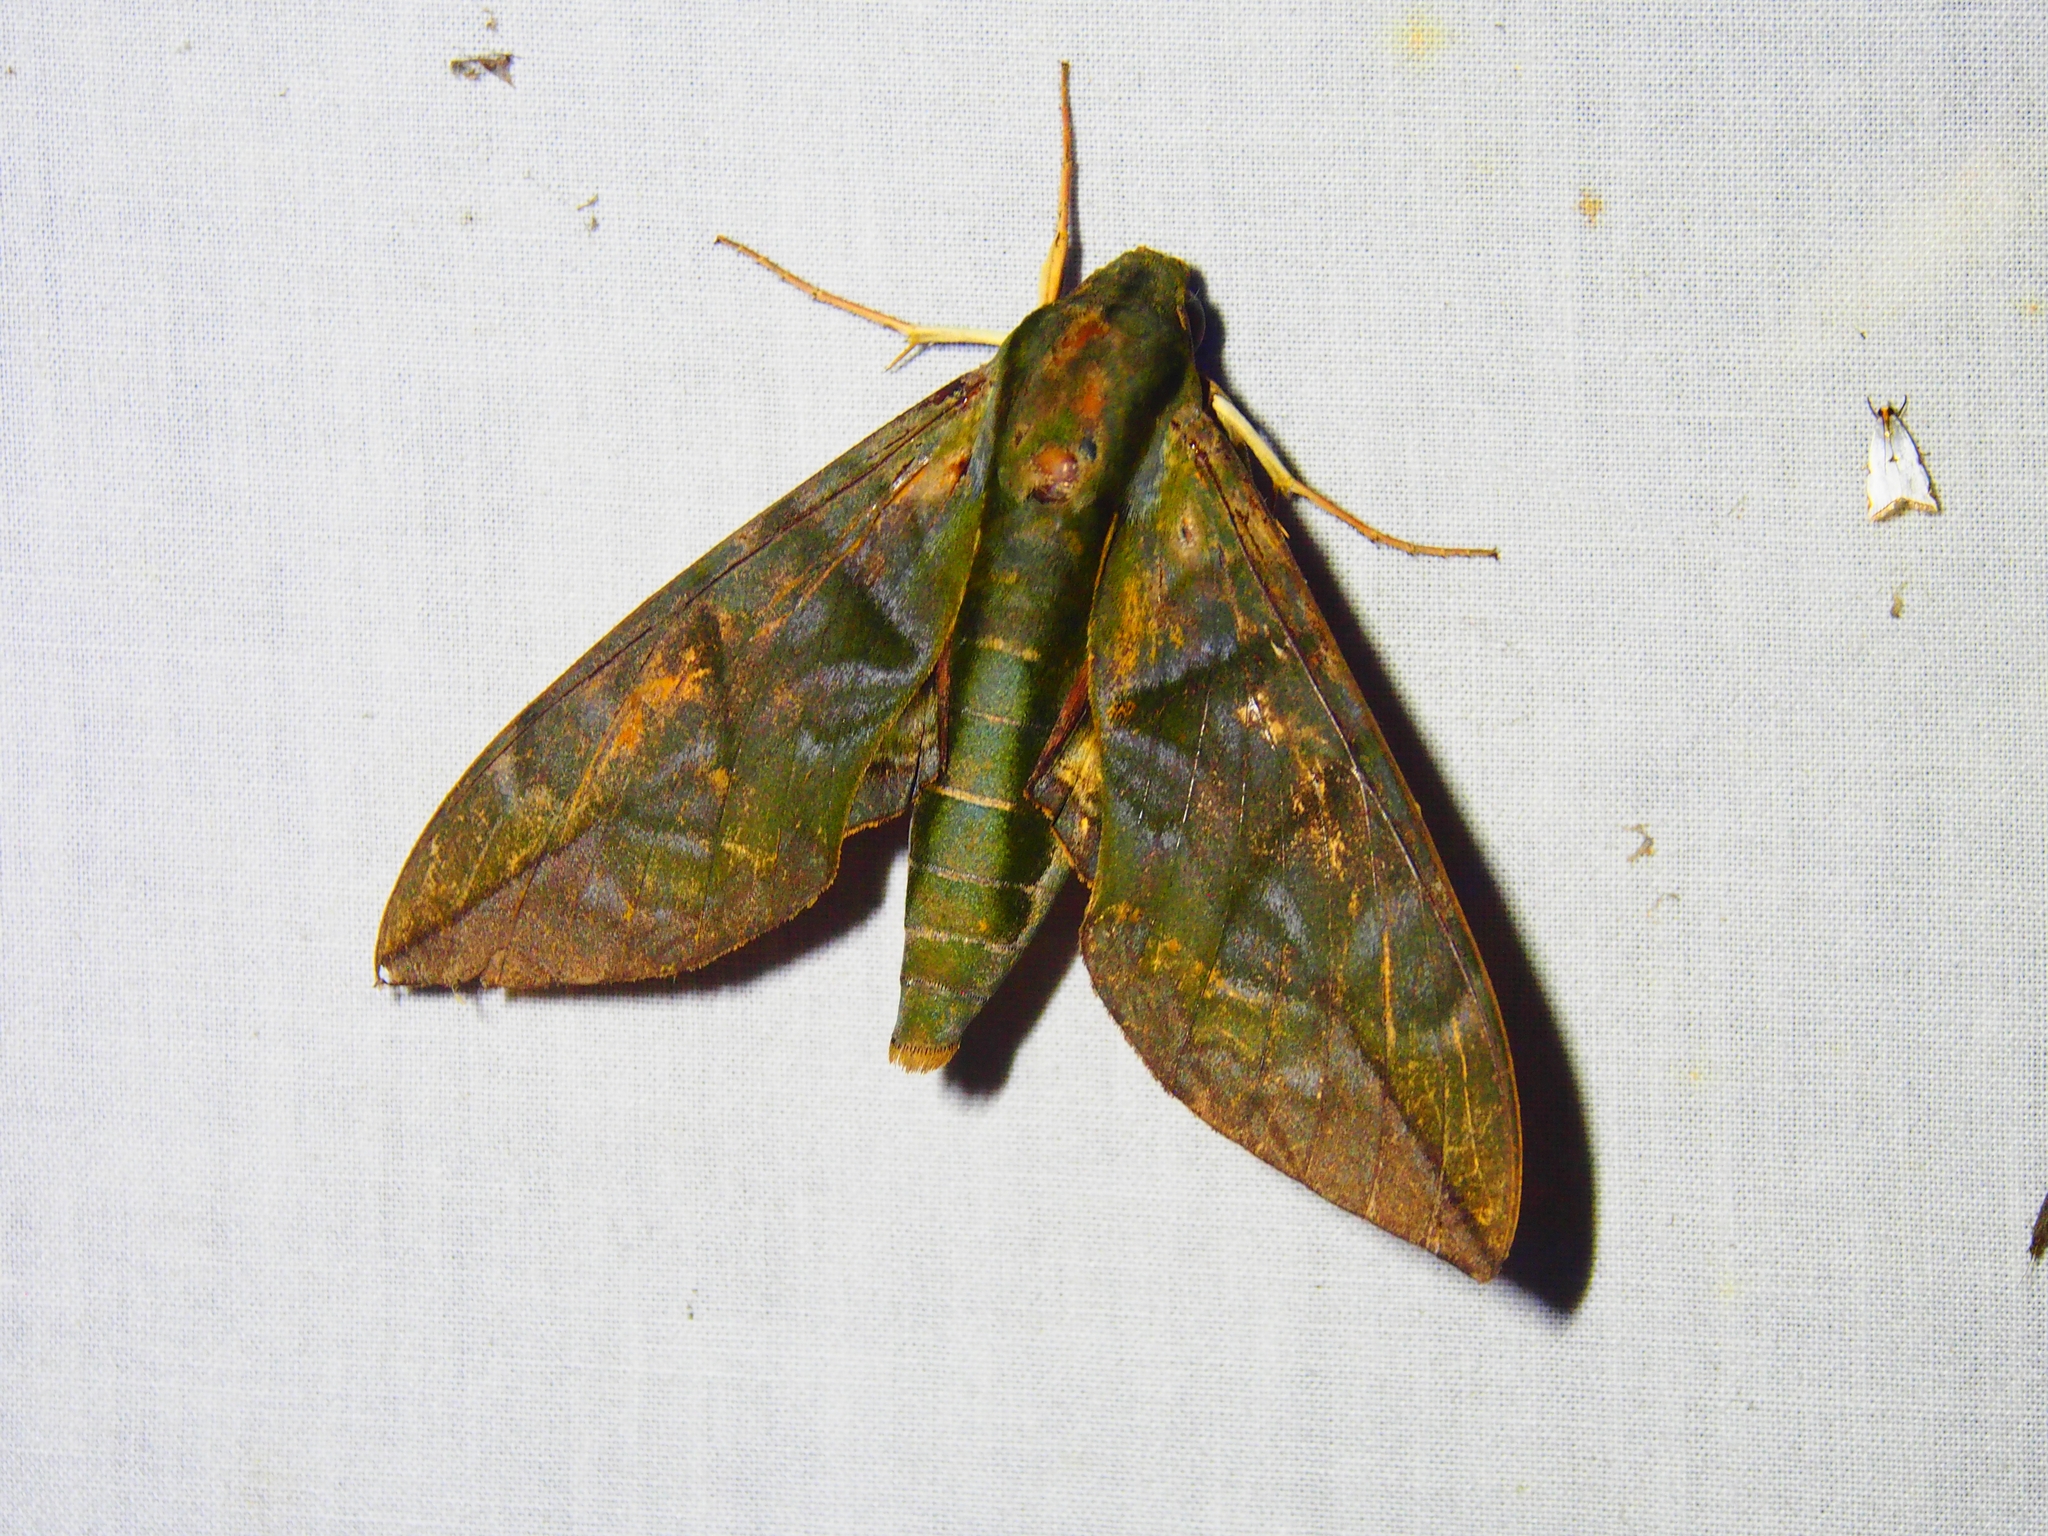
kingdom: Animalia
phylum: Arthropoda
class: Insecta
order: Lepidoptera
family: Sphingidae
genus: Eumorpha
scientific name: Eumorpha phorbas
